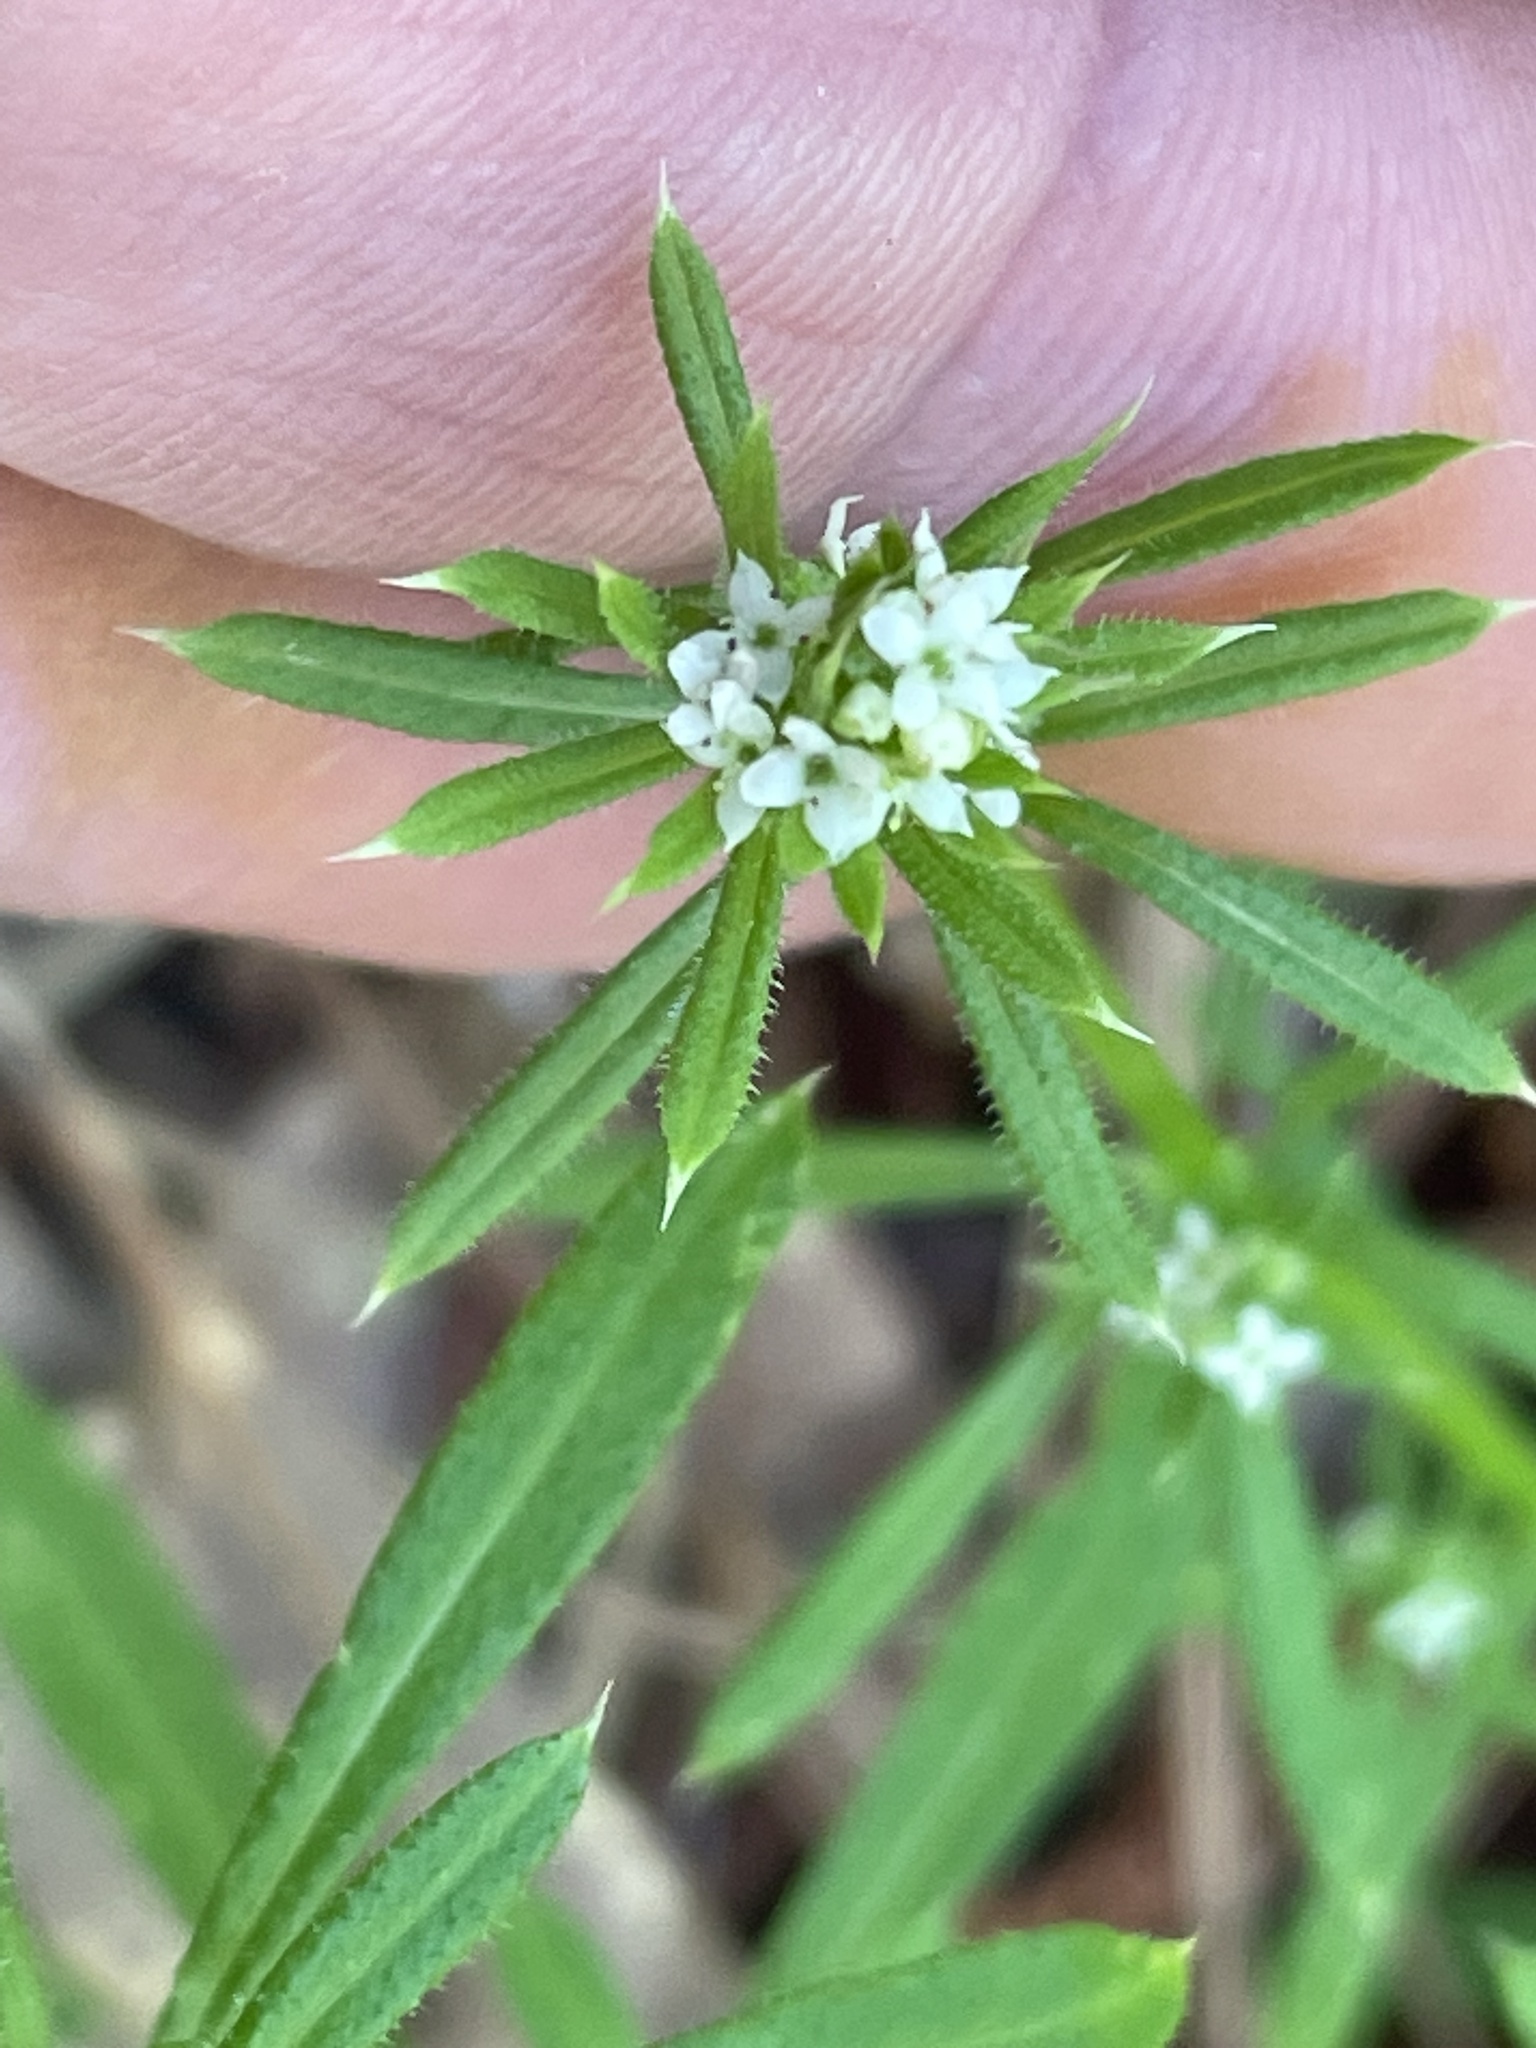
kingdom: Plantae
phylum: Tracheophyta
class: Magnoliopsida
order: Gentianales
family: Rubiaceae
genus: Galium
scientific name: Galium aparine
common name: Cleavers
